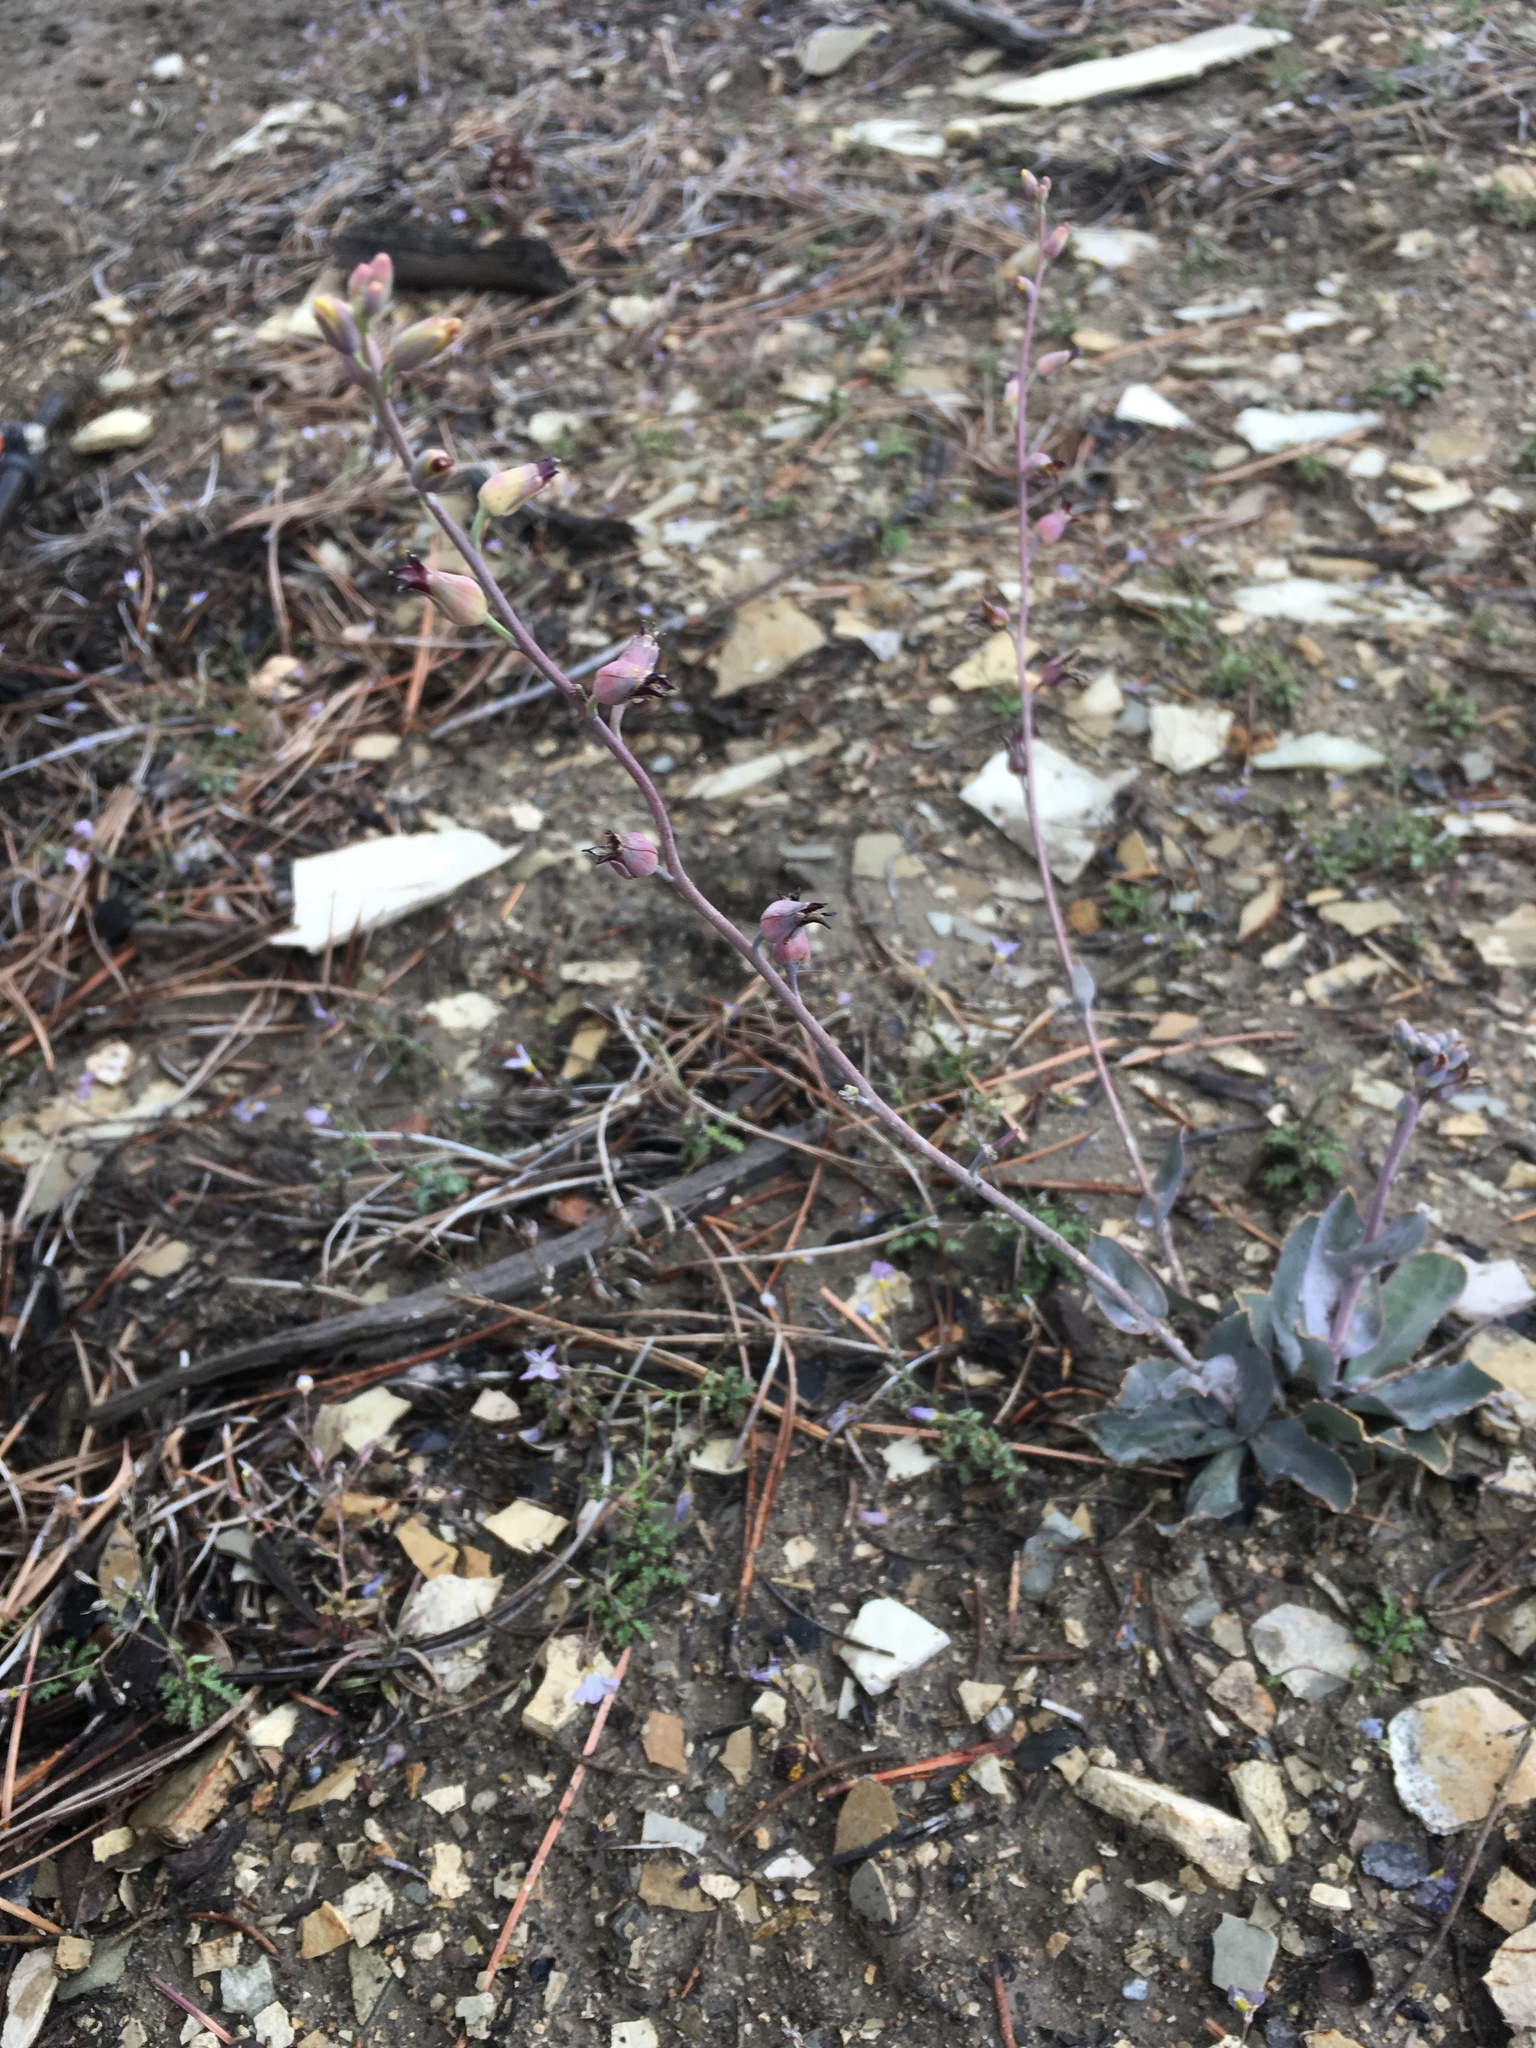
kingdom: Plantae
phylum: Tracheophyta
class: Magnoliopsida
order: Brassicales
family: Brassicaceae
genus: Streptanthus
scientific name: Streptanthus cordatus
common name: Heart-leaf jewel-flower
